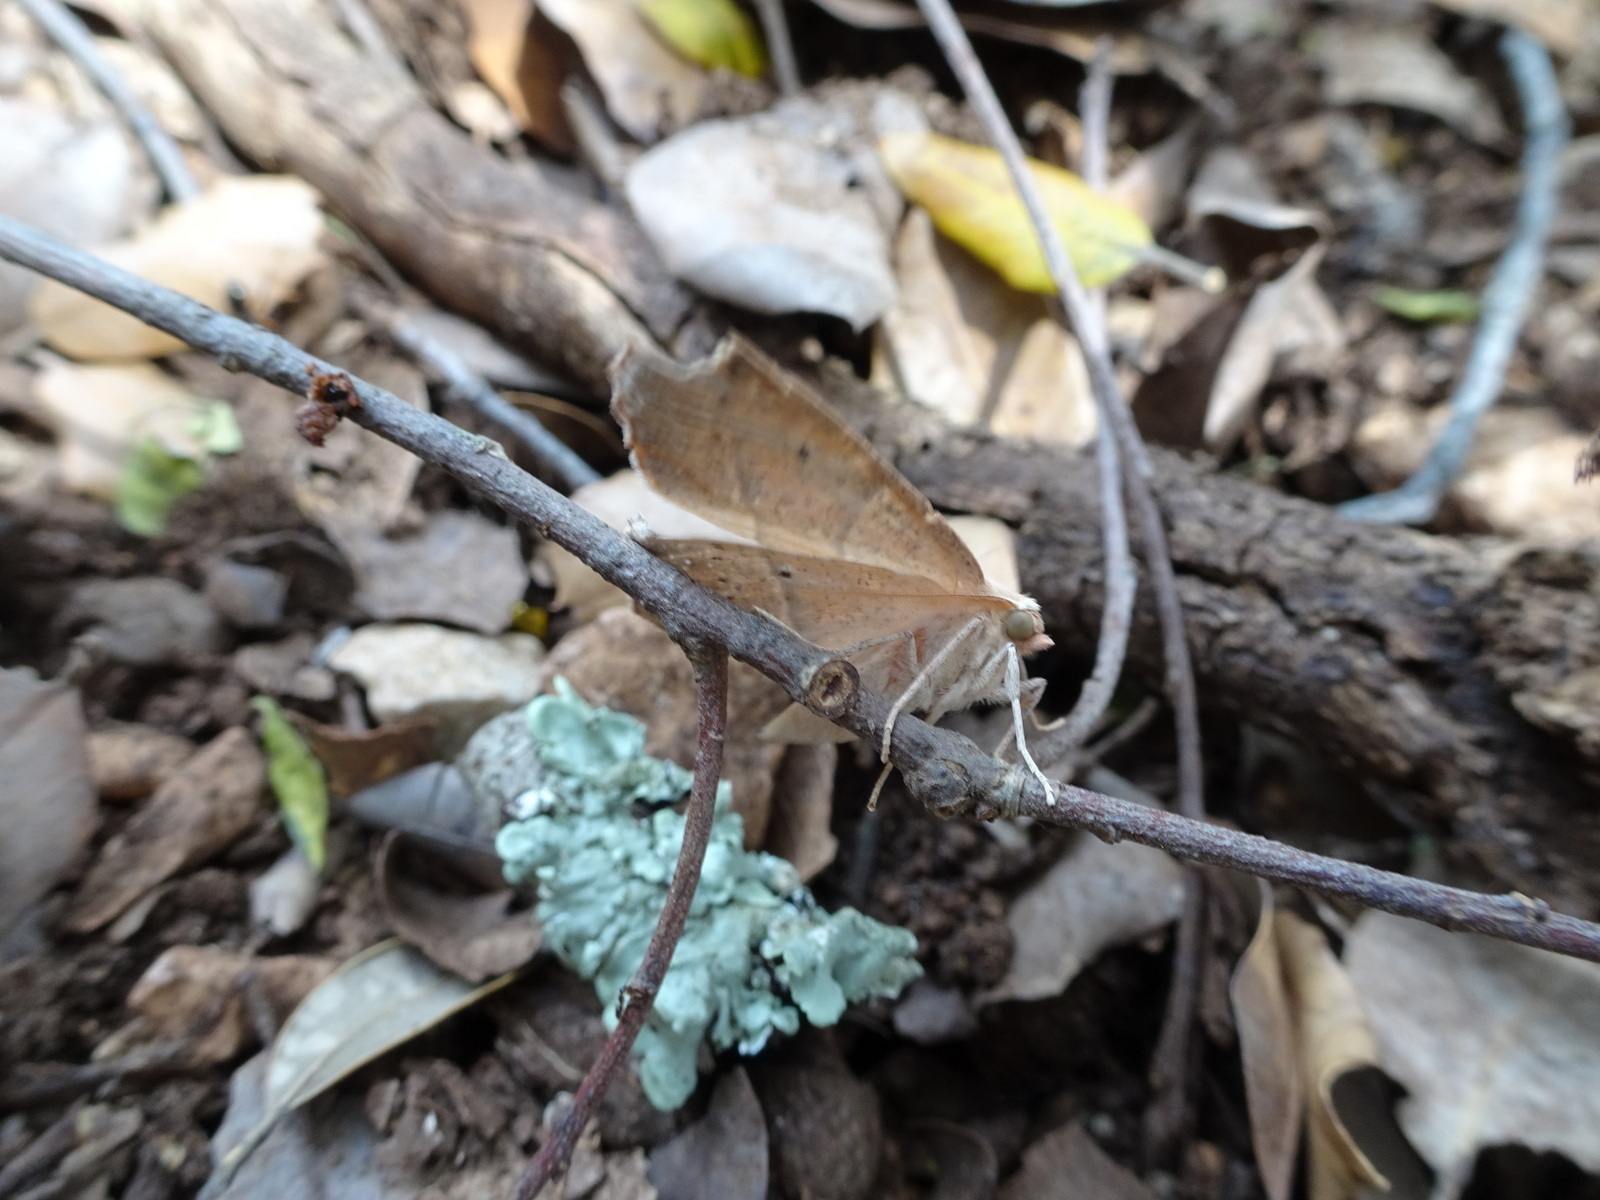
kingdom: Animalia
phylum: Arthropoda
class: Insecta
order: Lepidoptera
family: Geometridae
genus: Gerinia
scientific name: Gerinia honoraria
